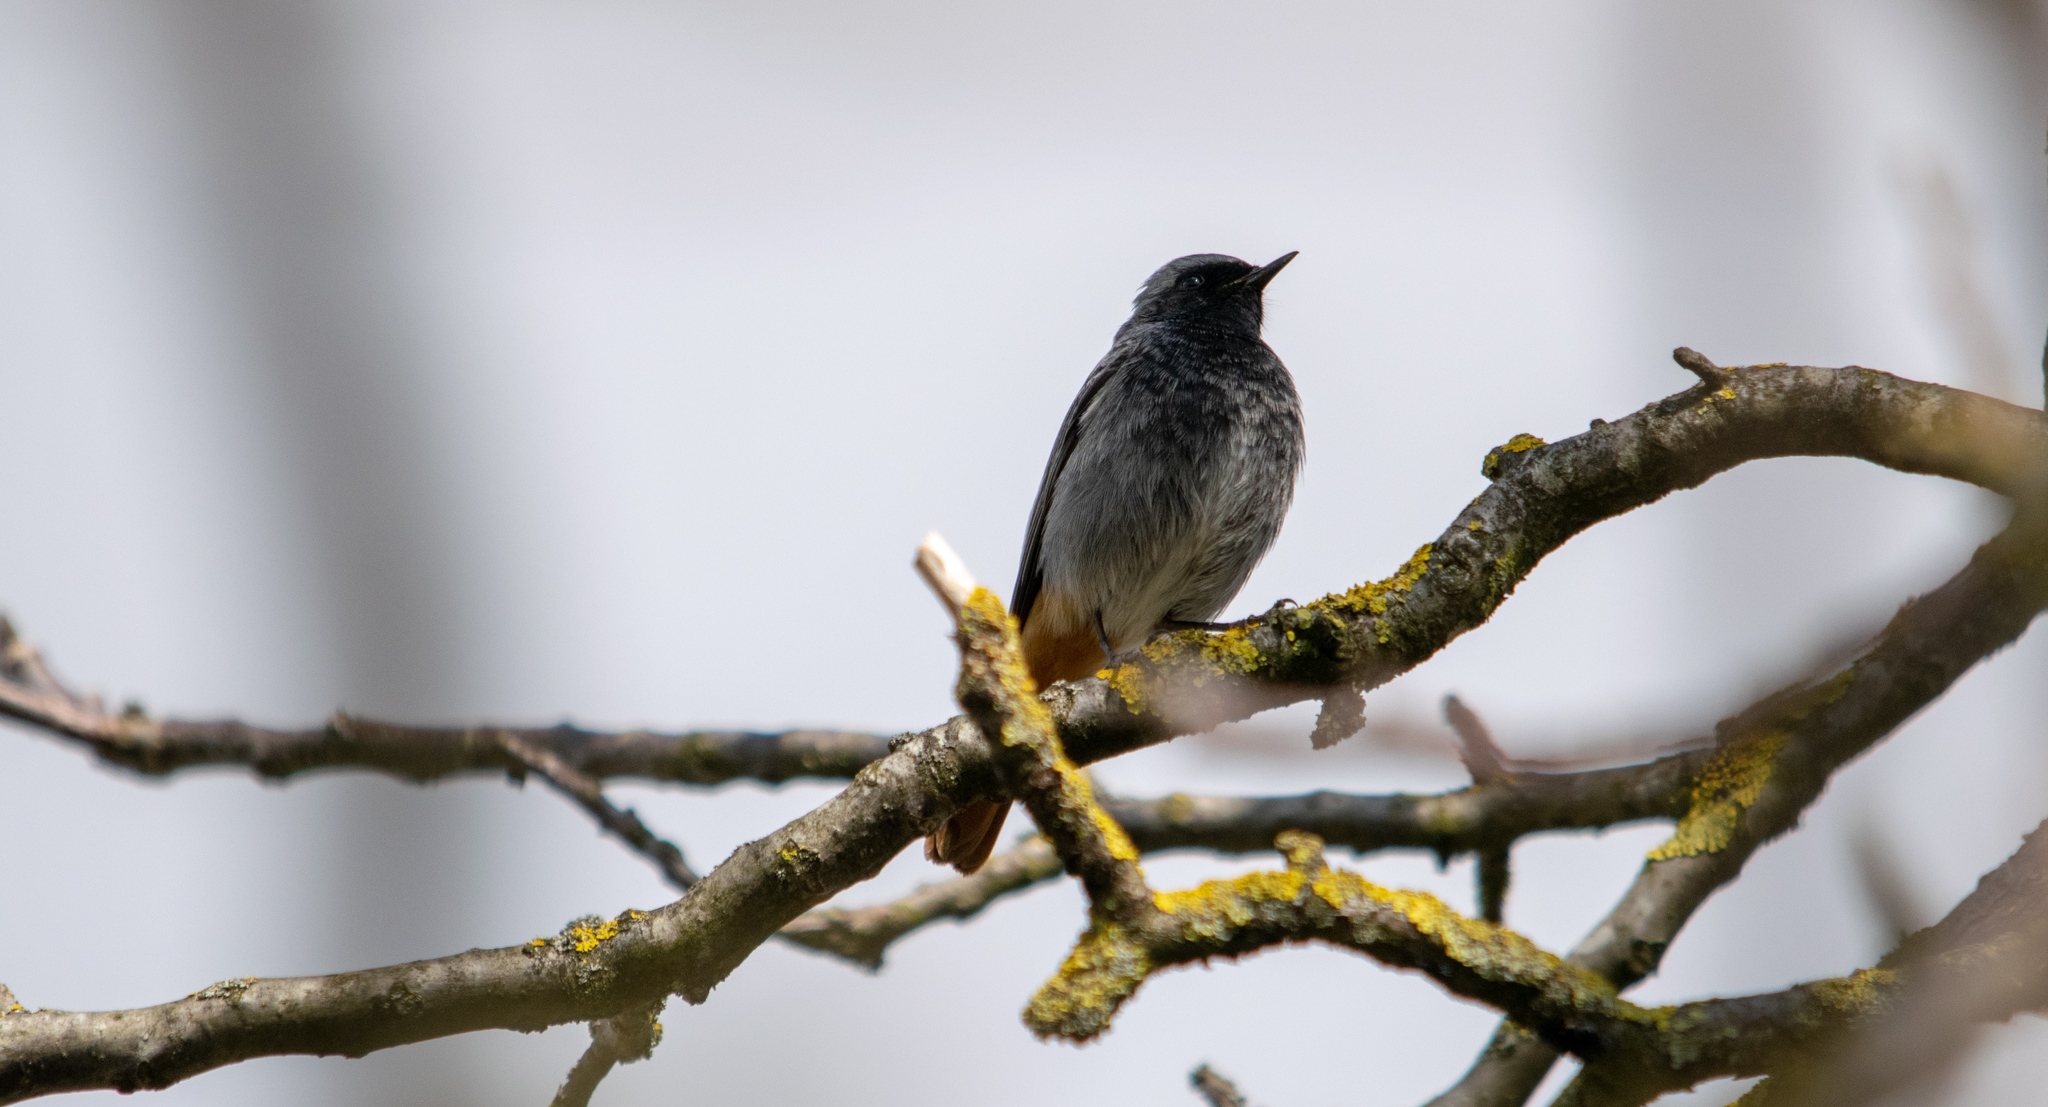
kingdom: Animalia
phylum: Chordata
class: Aves
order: Passeriformes
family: Muscicapidae
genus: Phoenicurus
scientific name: Phoenicurus ochruros
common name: Black redstart
